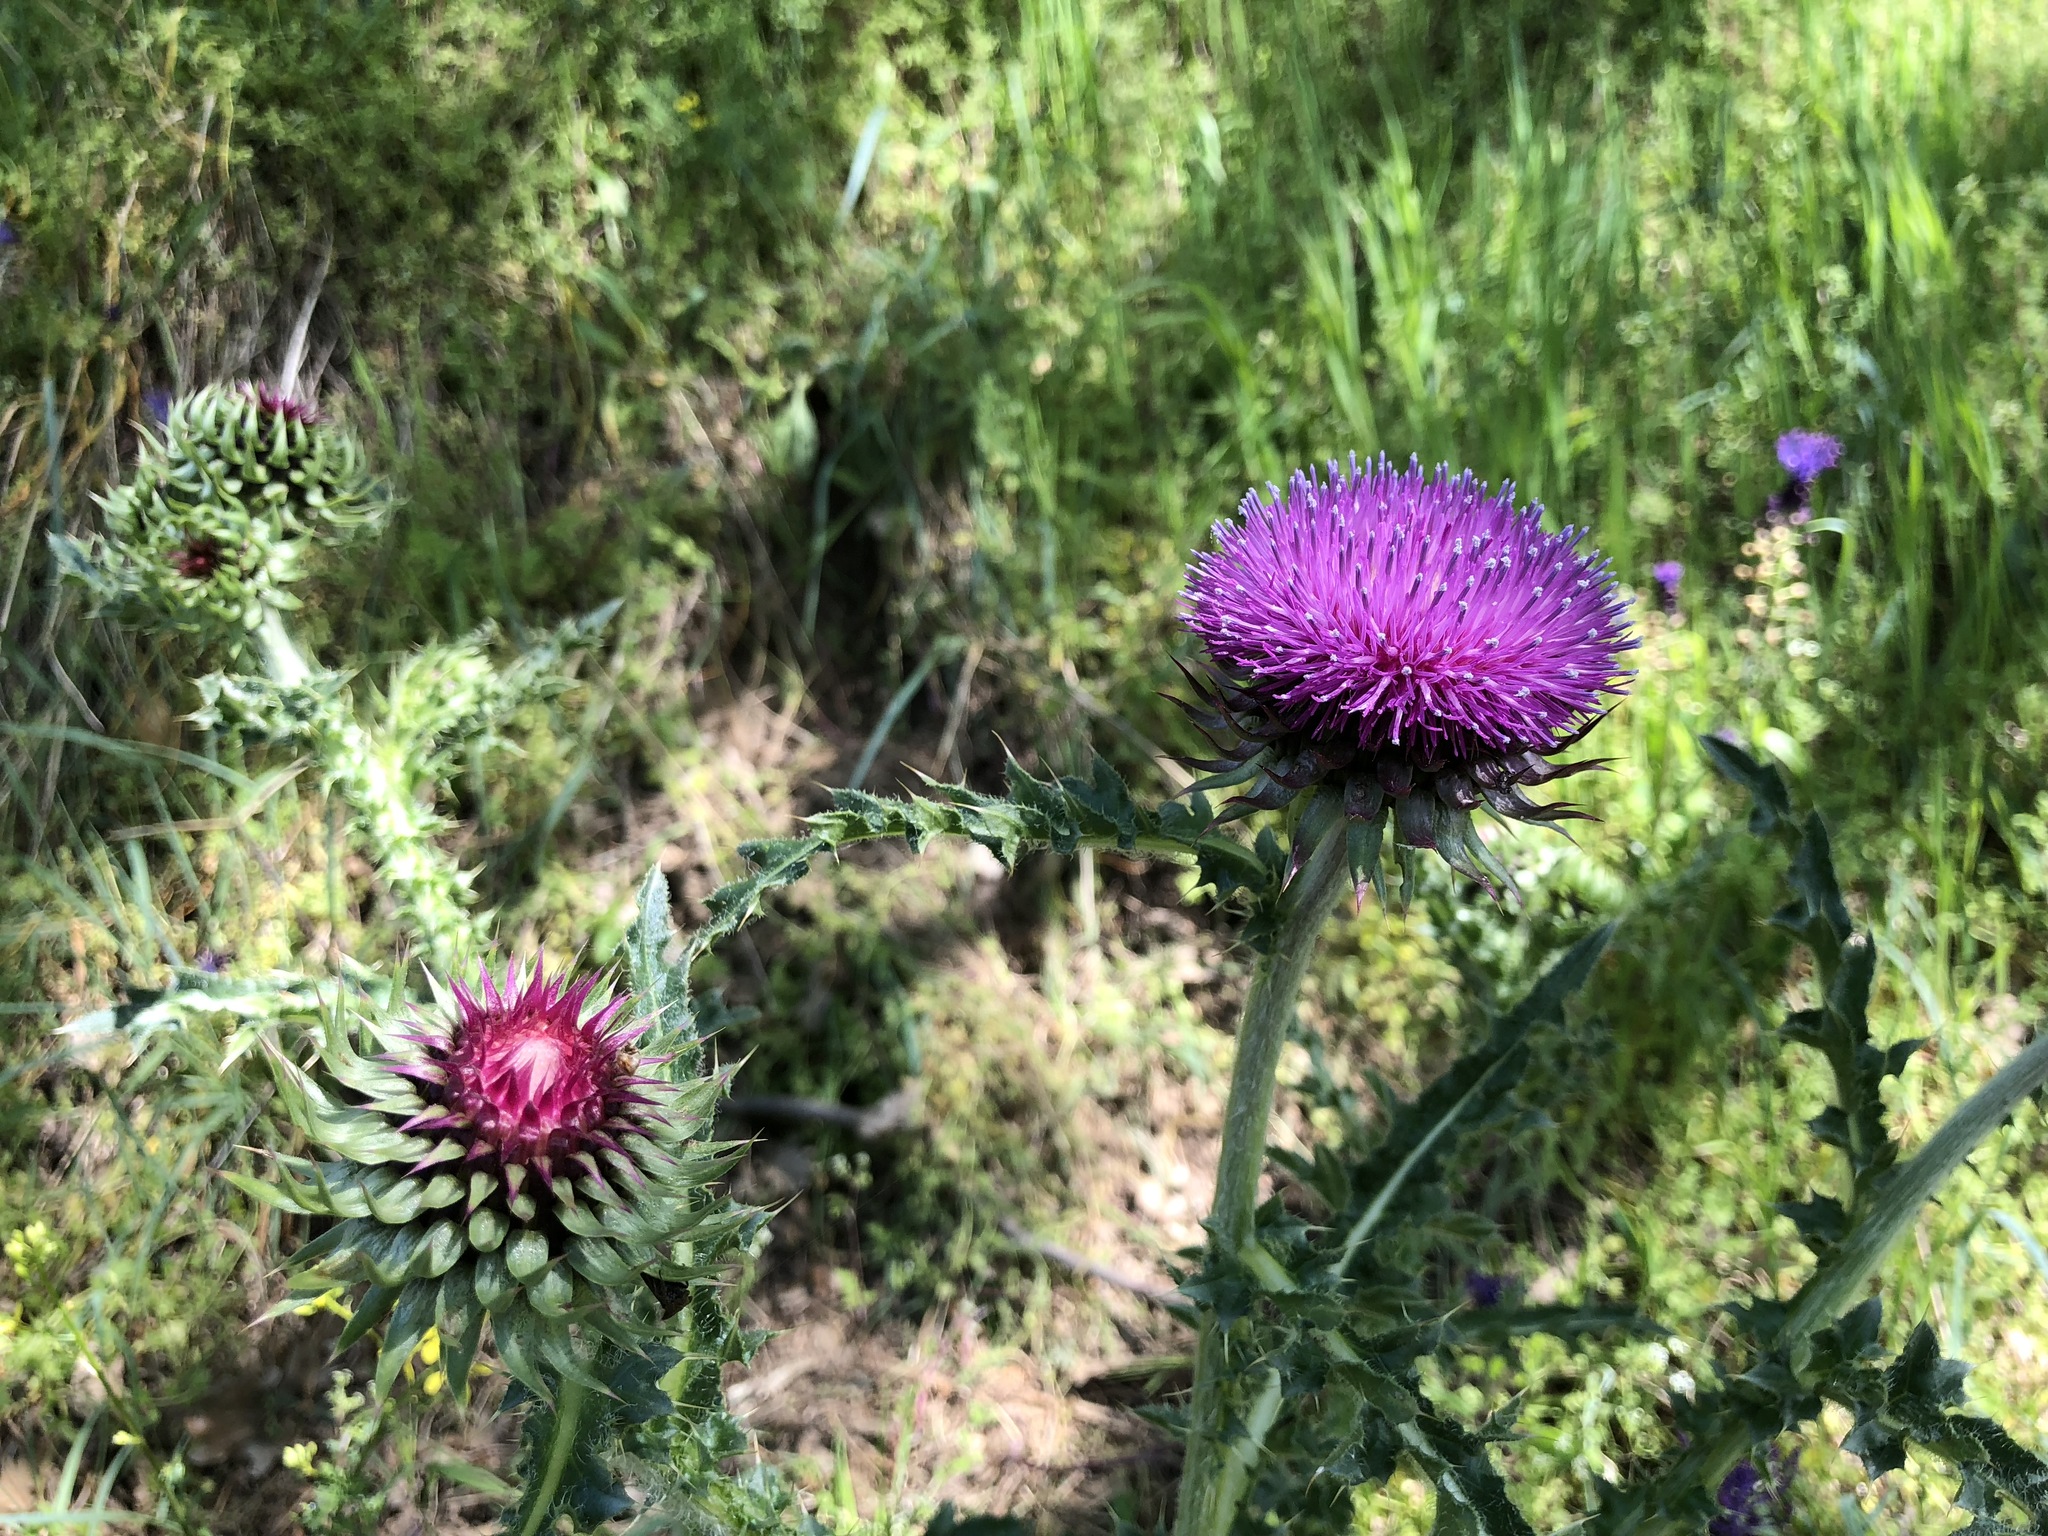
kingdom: Plantae
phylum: Tracheophyta
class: Magnoliopsida
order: Asterales
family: Asteraceae
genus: Carduus
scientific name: Carduus nutans
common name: Musk thistle
